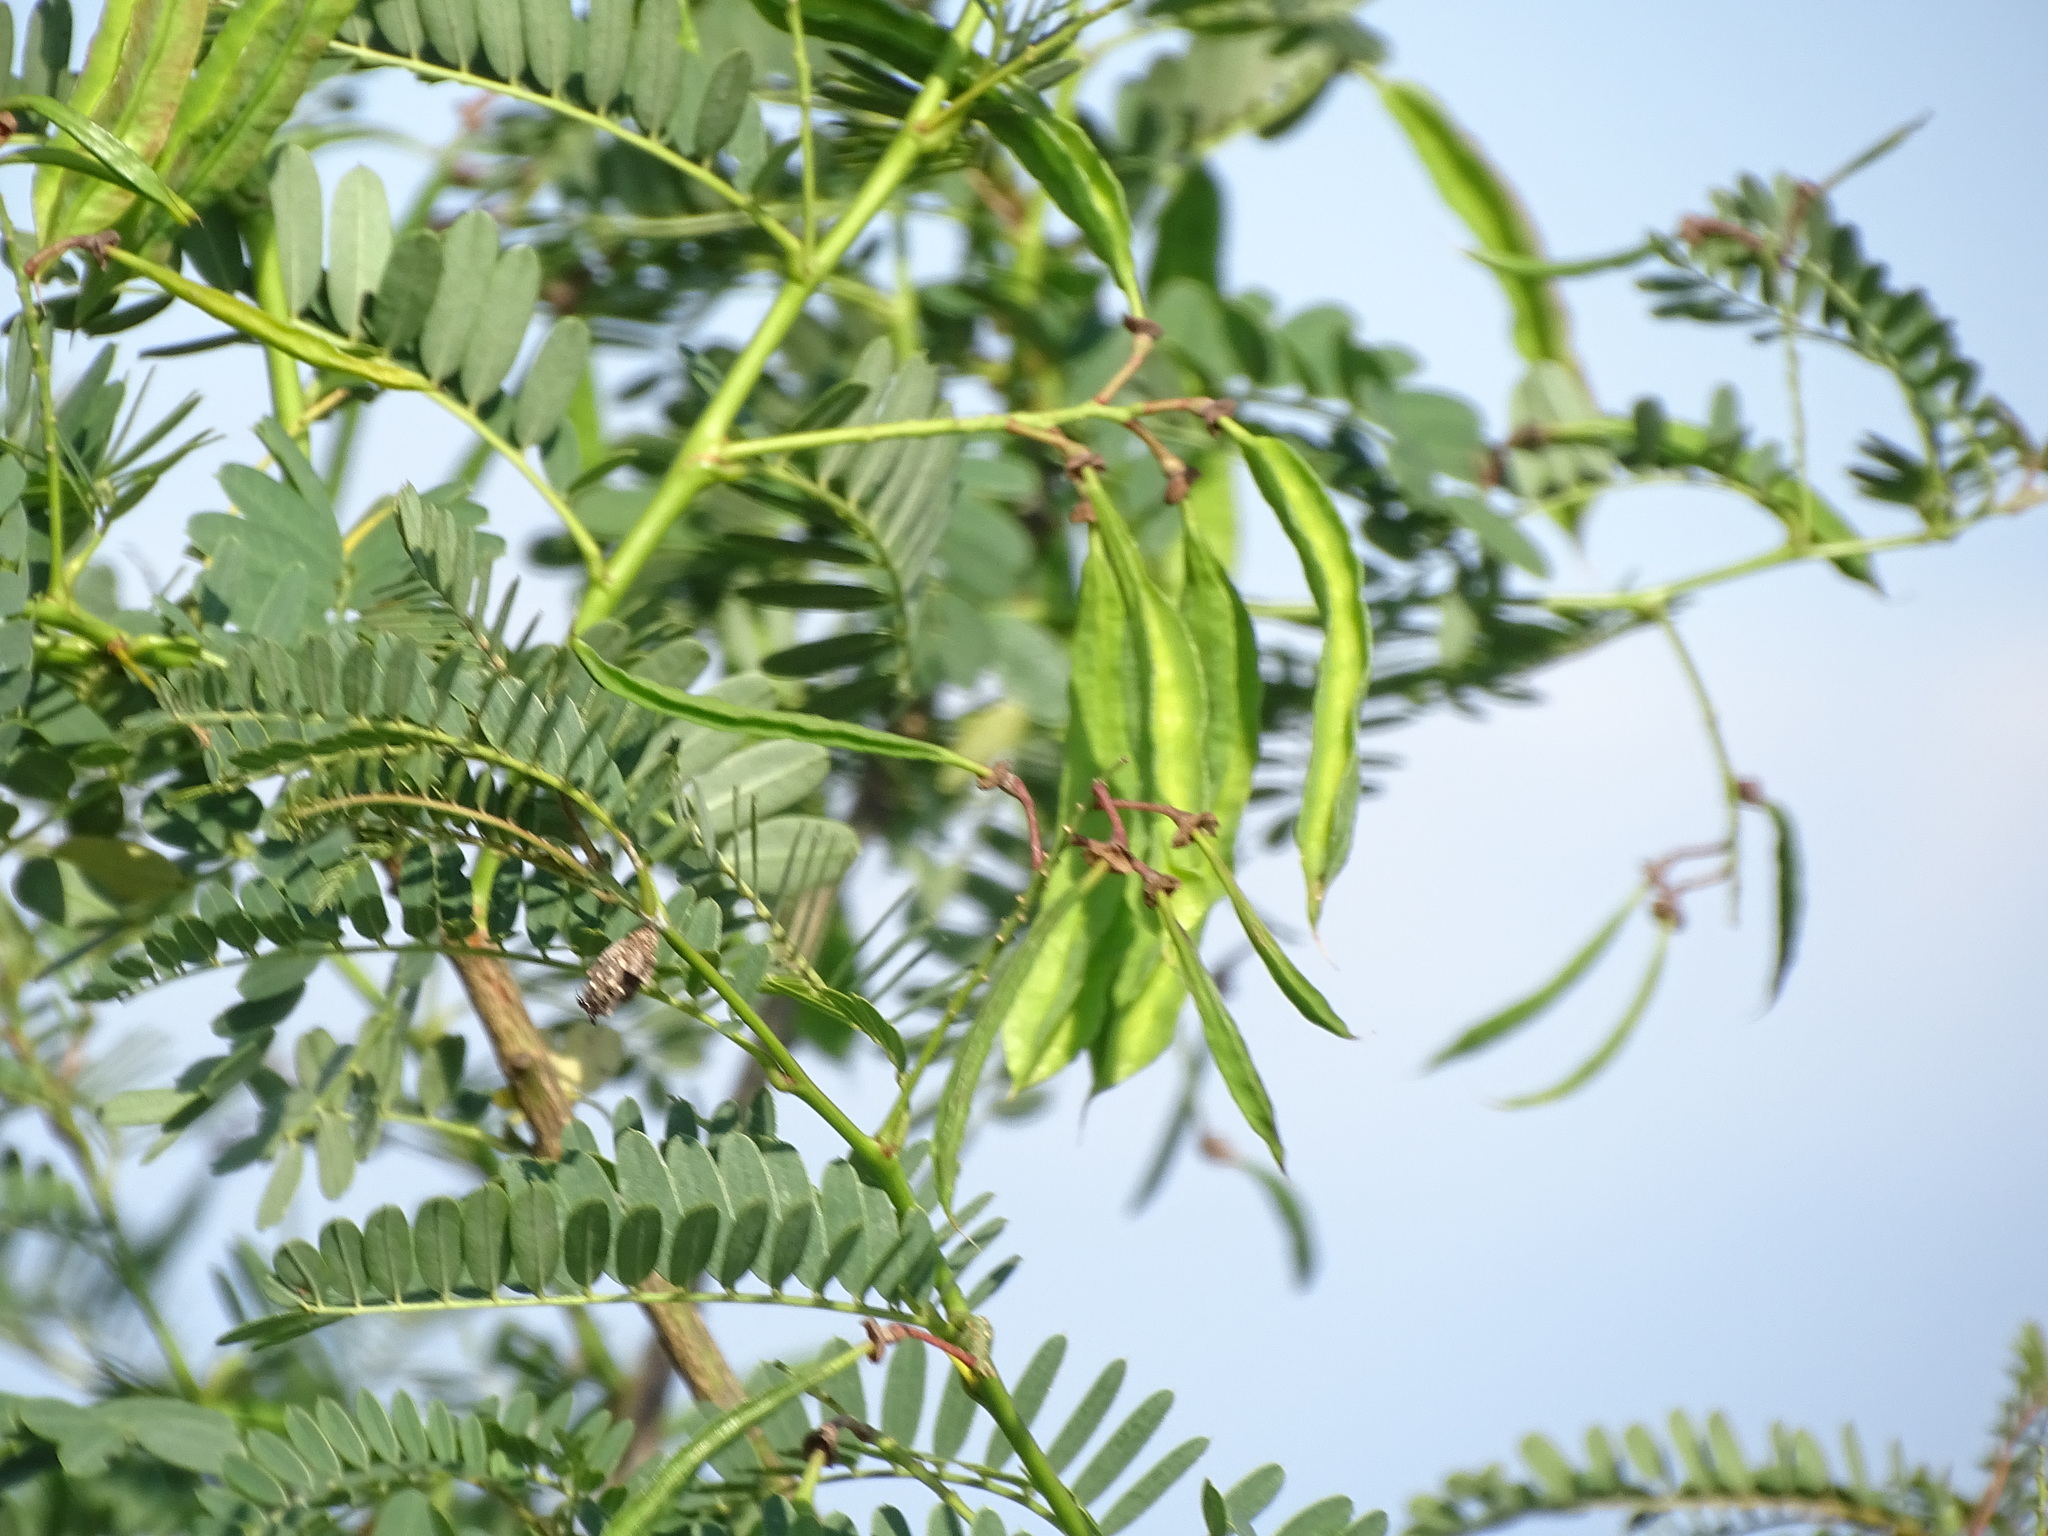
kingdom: Plantae
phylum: Tracheophyta
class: Magnoliopsida
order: Fabales
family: Fabaceae
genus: Sesbania
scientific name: Sesbania punicea
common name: Rattlebox
